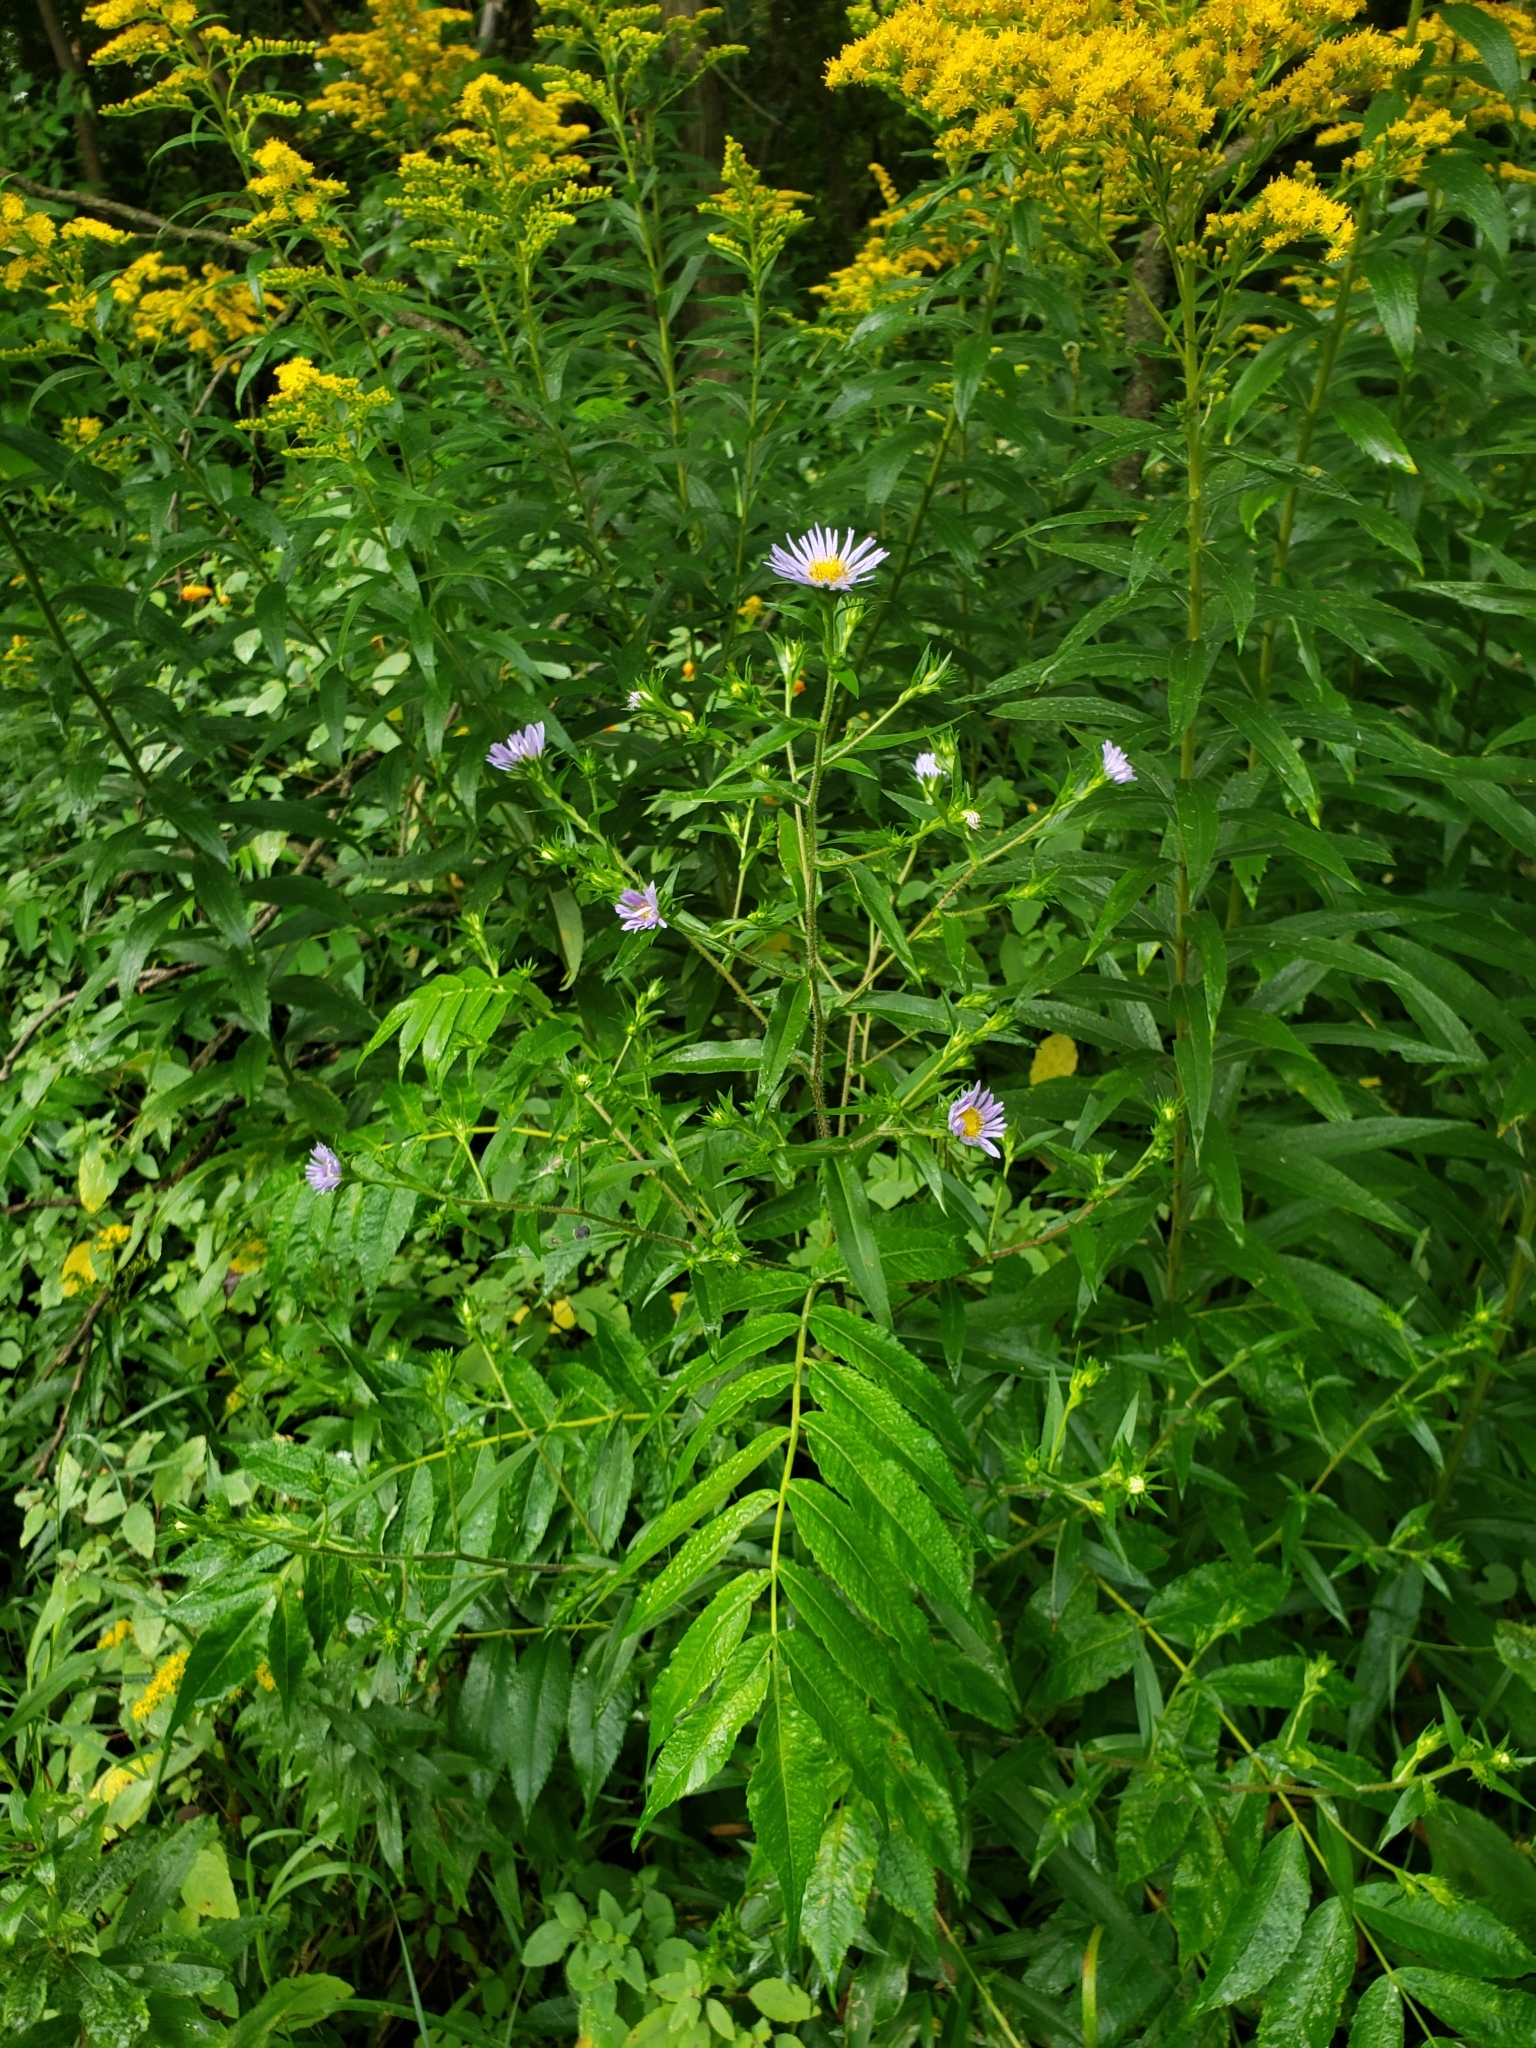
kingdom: Plantae
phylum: Tracheophyta
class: Magnoliopsida
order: Asterales
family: Asteraceae
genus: Symphyotrichum
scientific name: Symphyotrichum puniceum
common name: Bog aster
